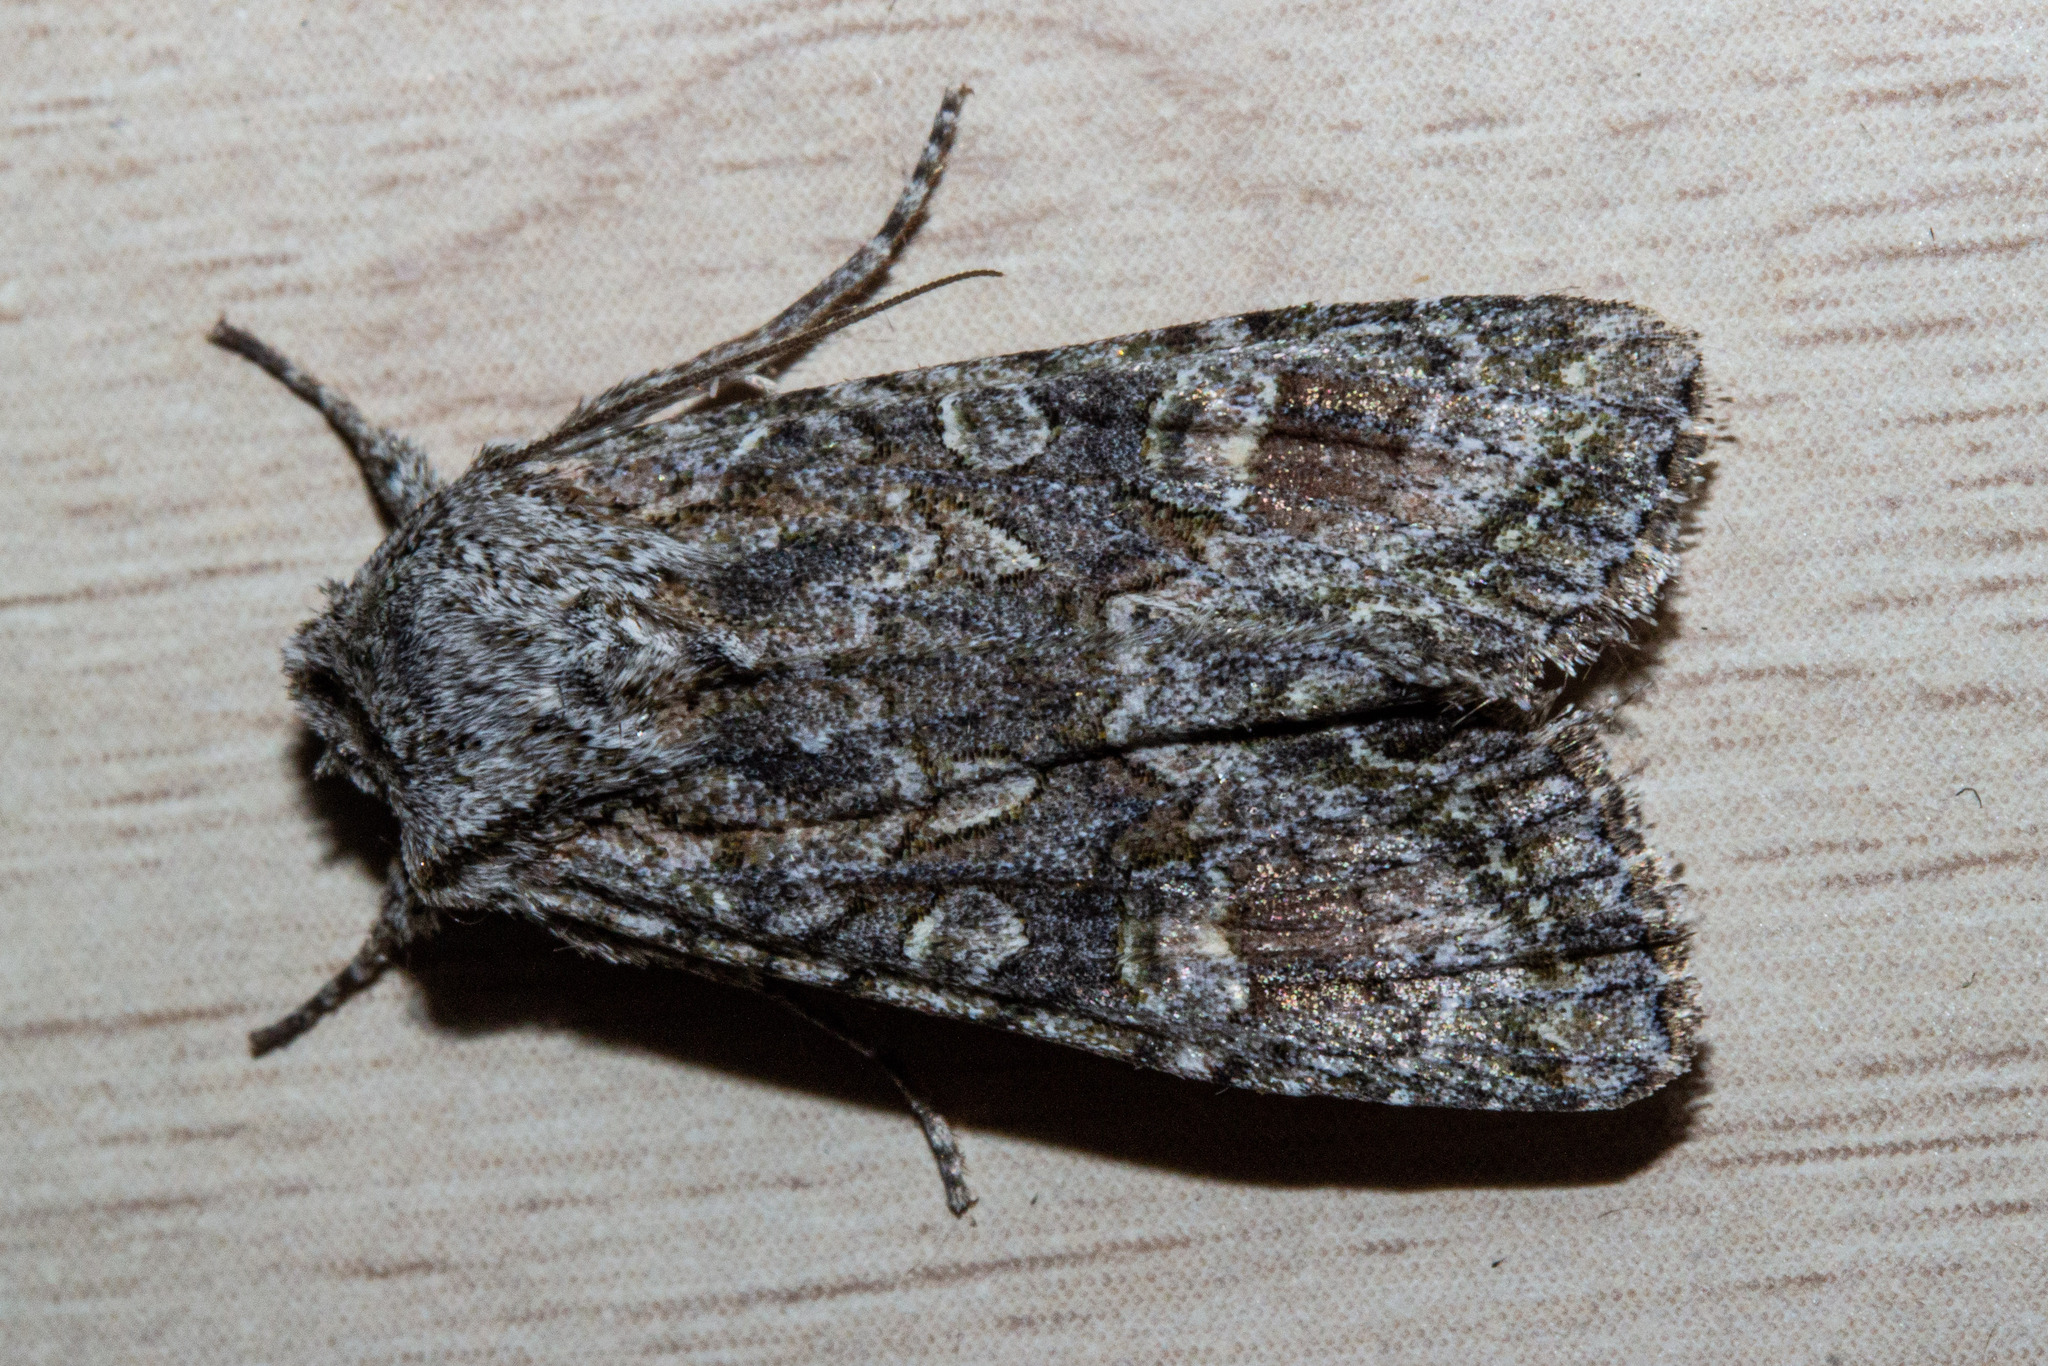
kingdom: Animalia
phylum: Arthropoda
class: Insecta
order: Lepidoptera
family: Noctuidae
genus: Ichneutica
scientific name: Ichneutica mutans
